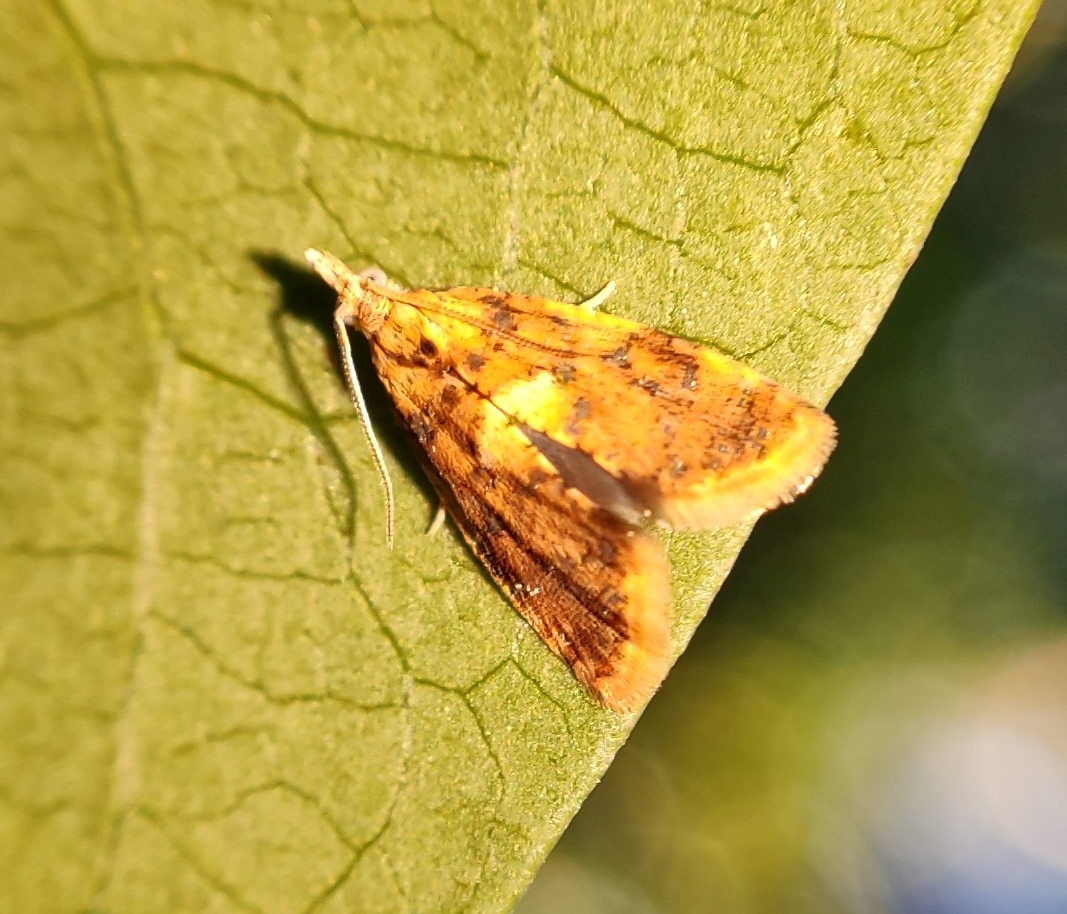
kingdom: Animalia
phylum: Arthropoda
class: Insecta
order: Lepidoptera
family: Tortricidae
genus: Pseudargyrotoza
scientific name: Pseudargyrotoza conwagana
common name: Yellow-spot twist
